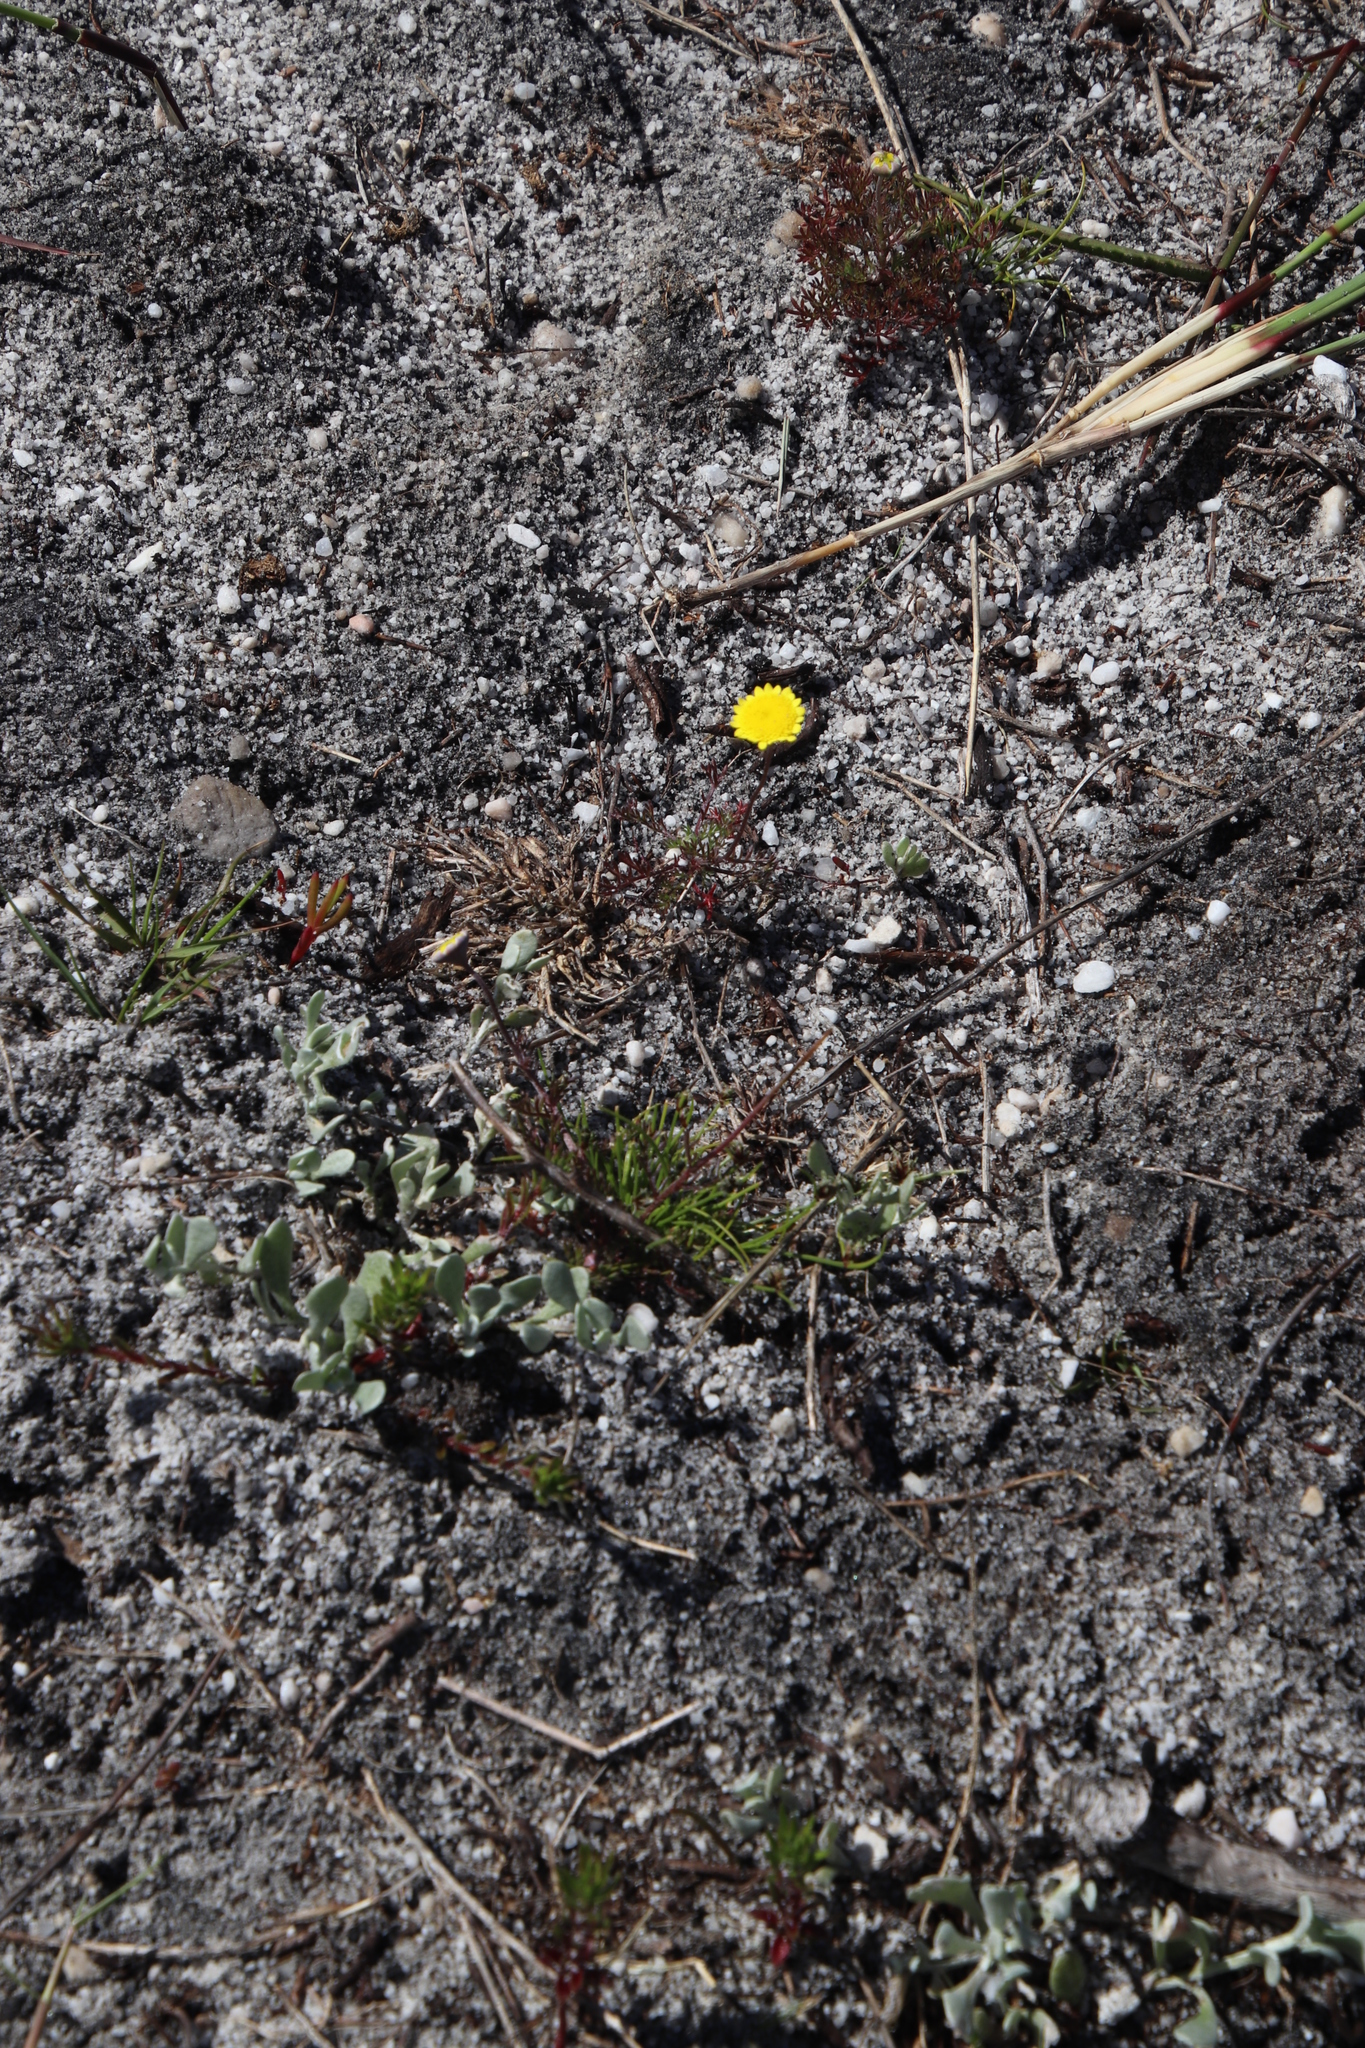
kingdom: Plantae
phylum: Tracheophyta
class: Magnoliopsida
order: Asterales
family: Asteraceae
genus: Cotula
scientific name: Cotula pruinosa
